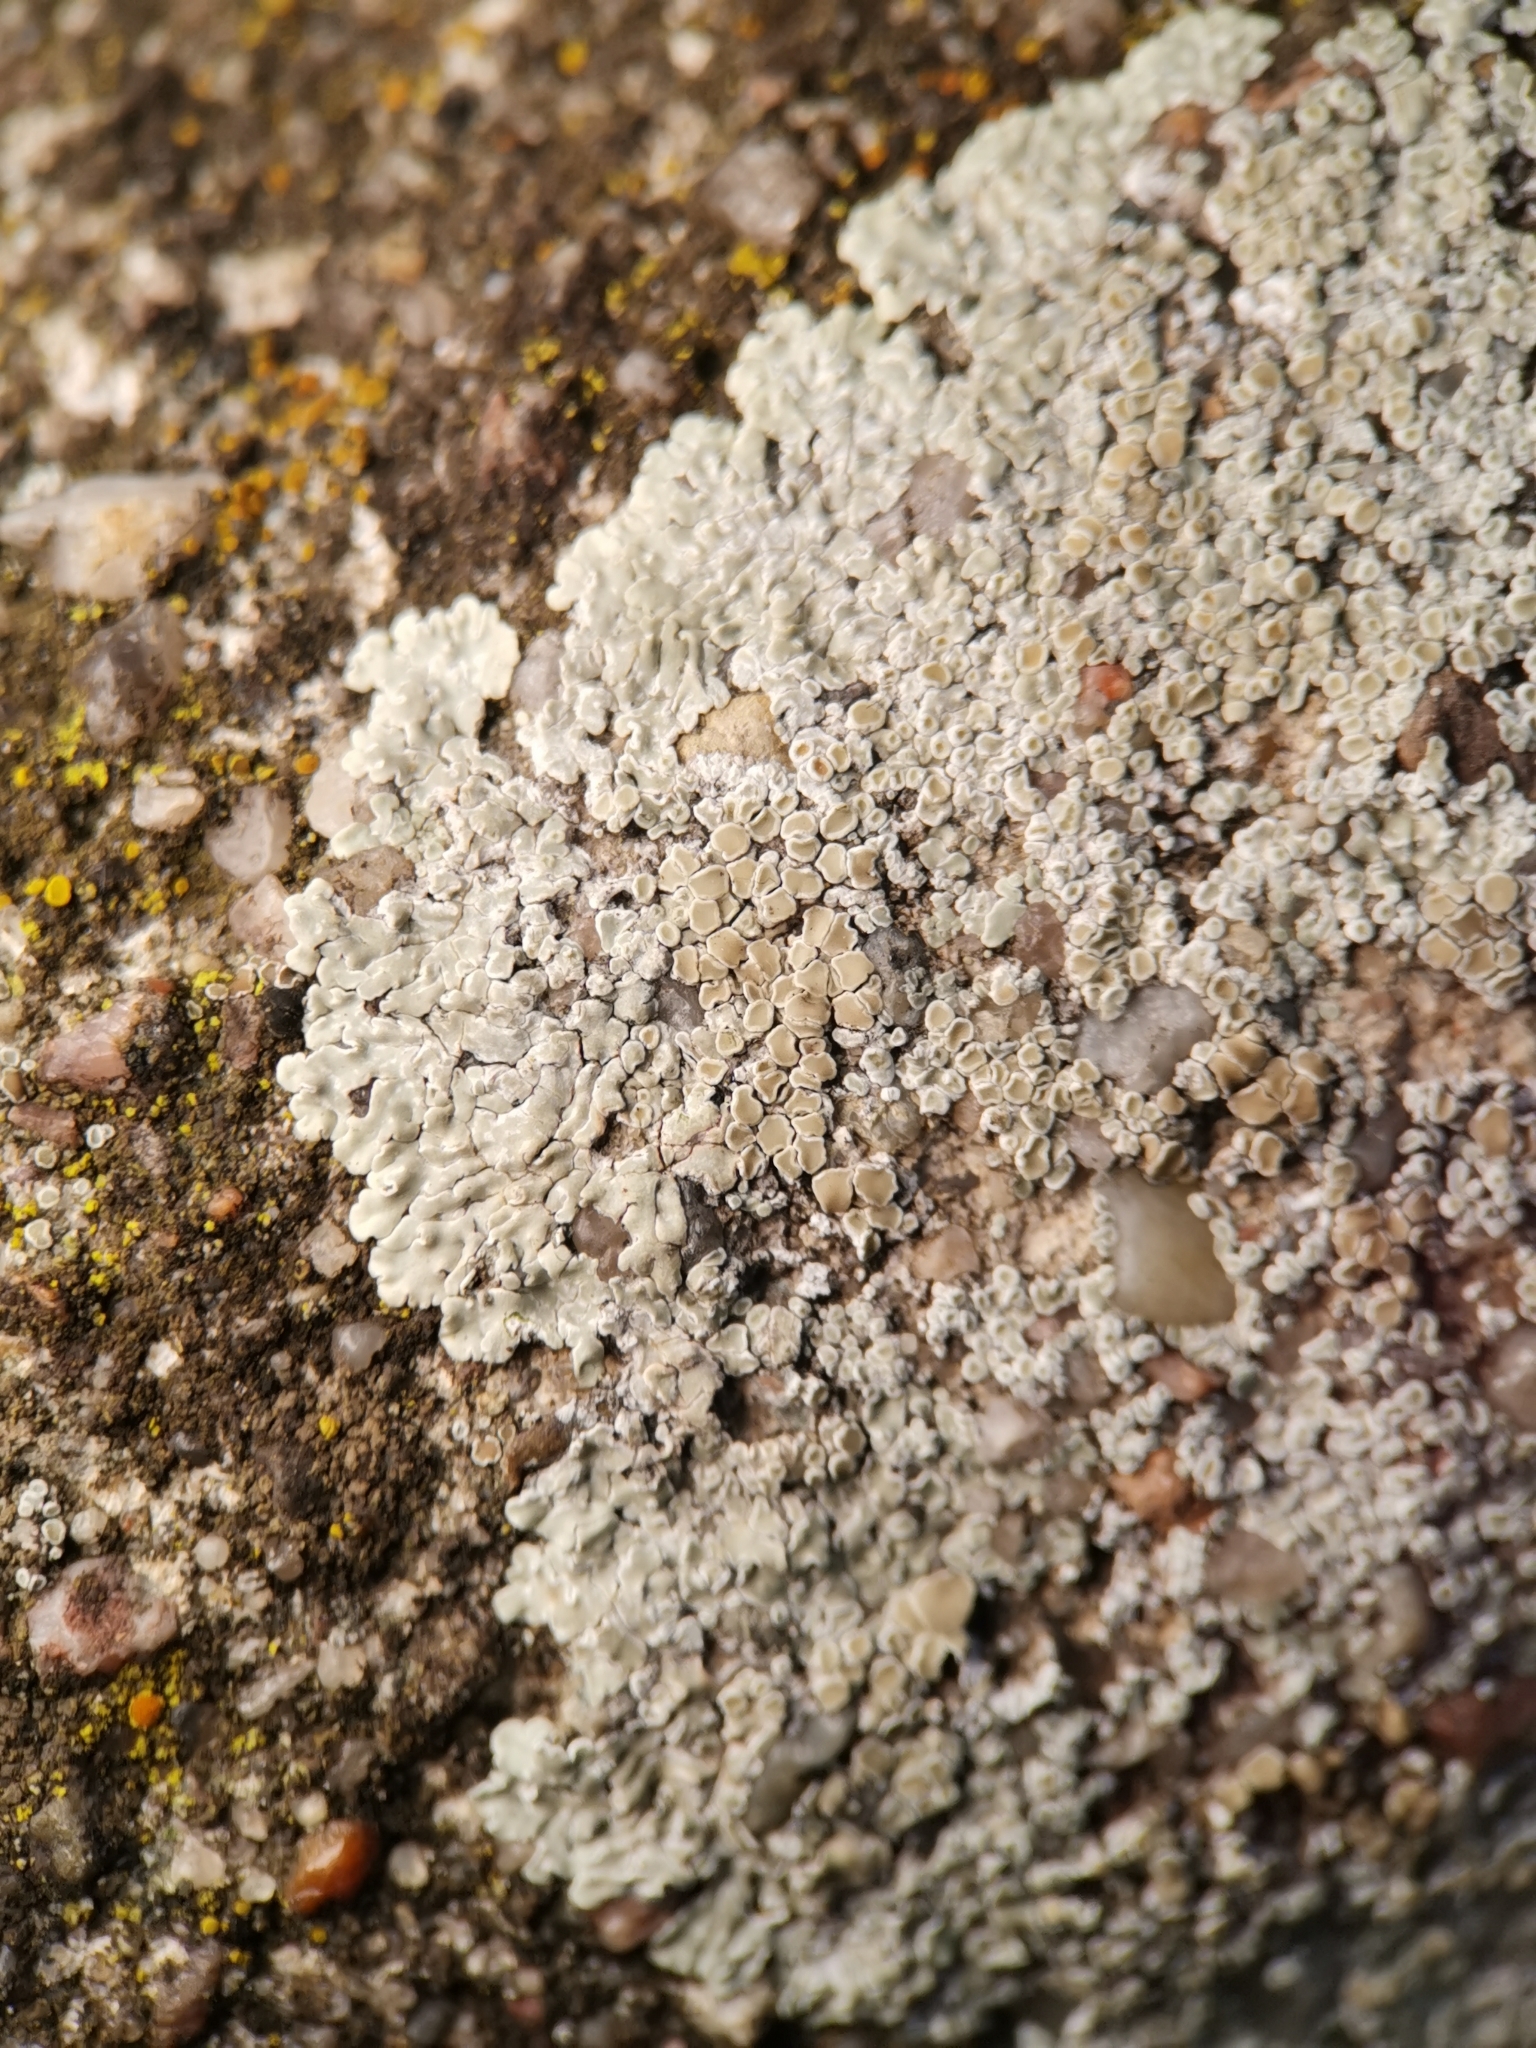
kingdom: Fungi
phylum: Ascomycota
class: Lecanoromycetes
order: Lecanorales
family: Lecanoraceae
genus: Protoparmeliopsis
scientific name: Protoparmeliopsis muralis
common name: Stonewall rim lichen
